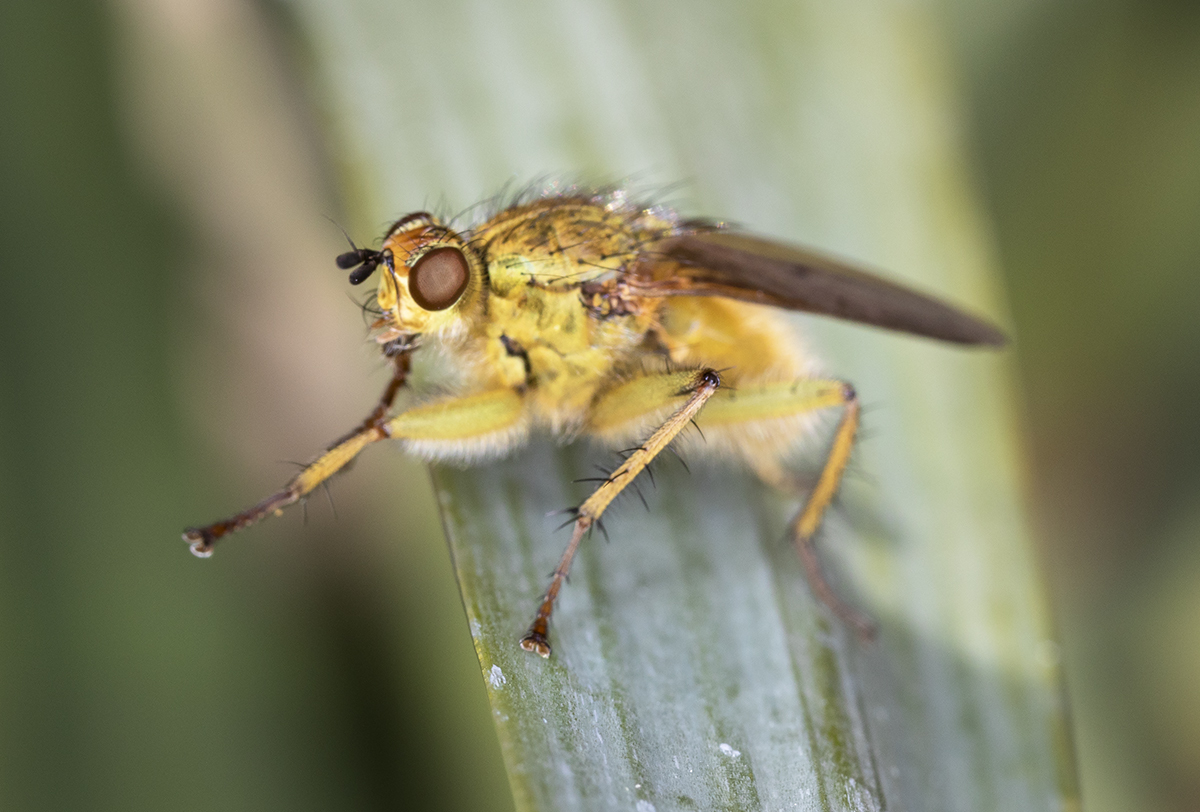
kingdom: Animalia
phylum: Arthropoda
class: Insecta
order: Diptera
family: Scathophagidae
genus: Scathophaga
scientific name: Scathophaga stercoraria
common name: Yellow dung fly
